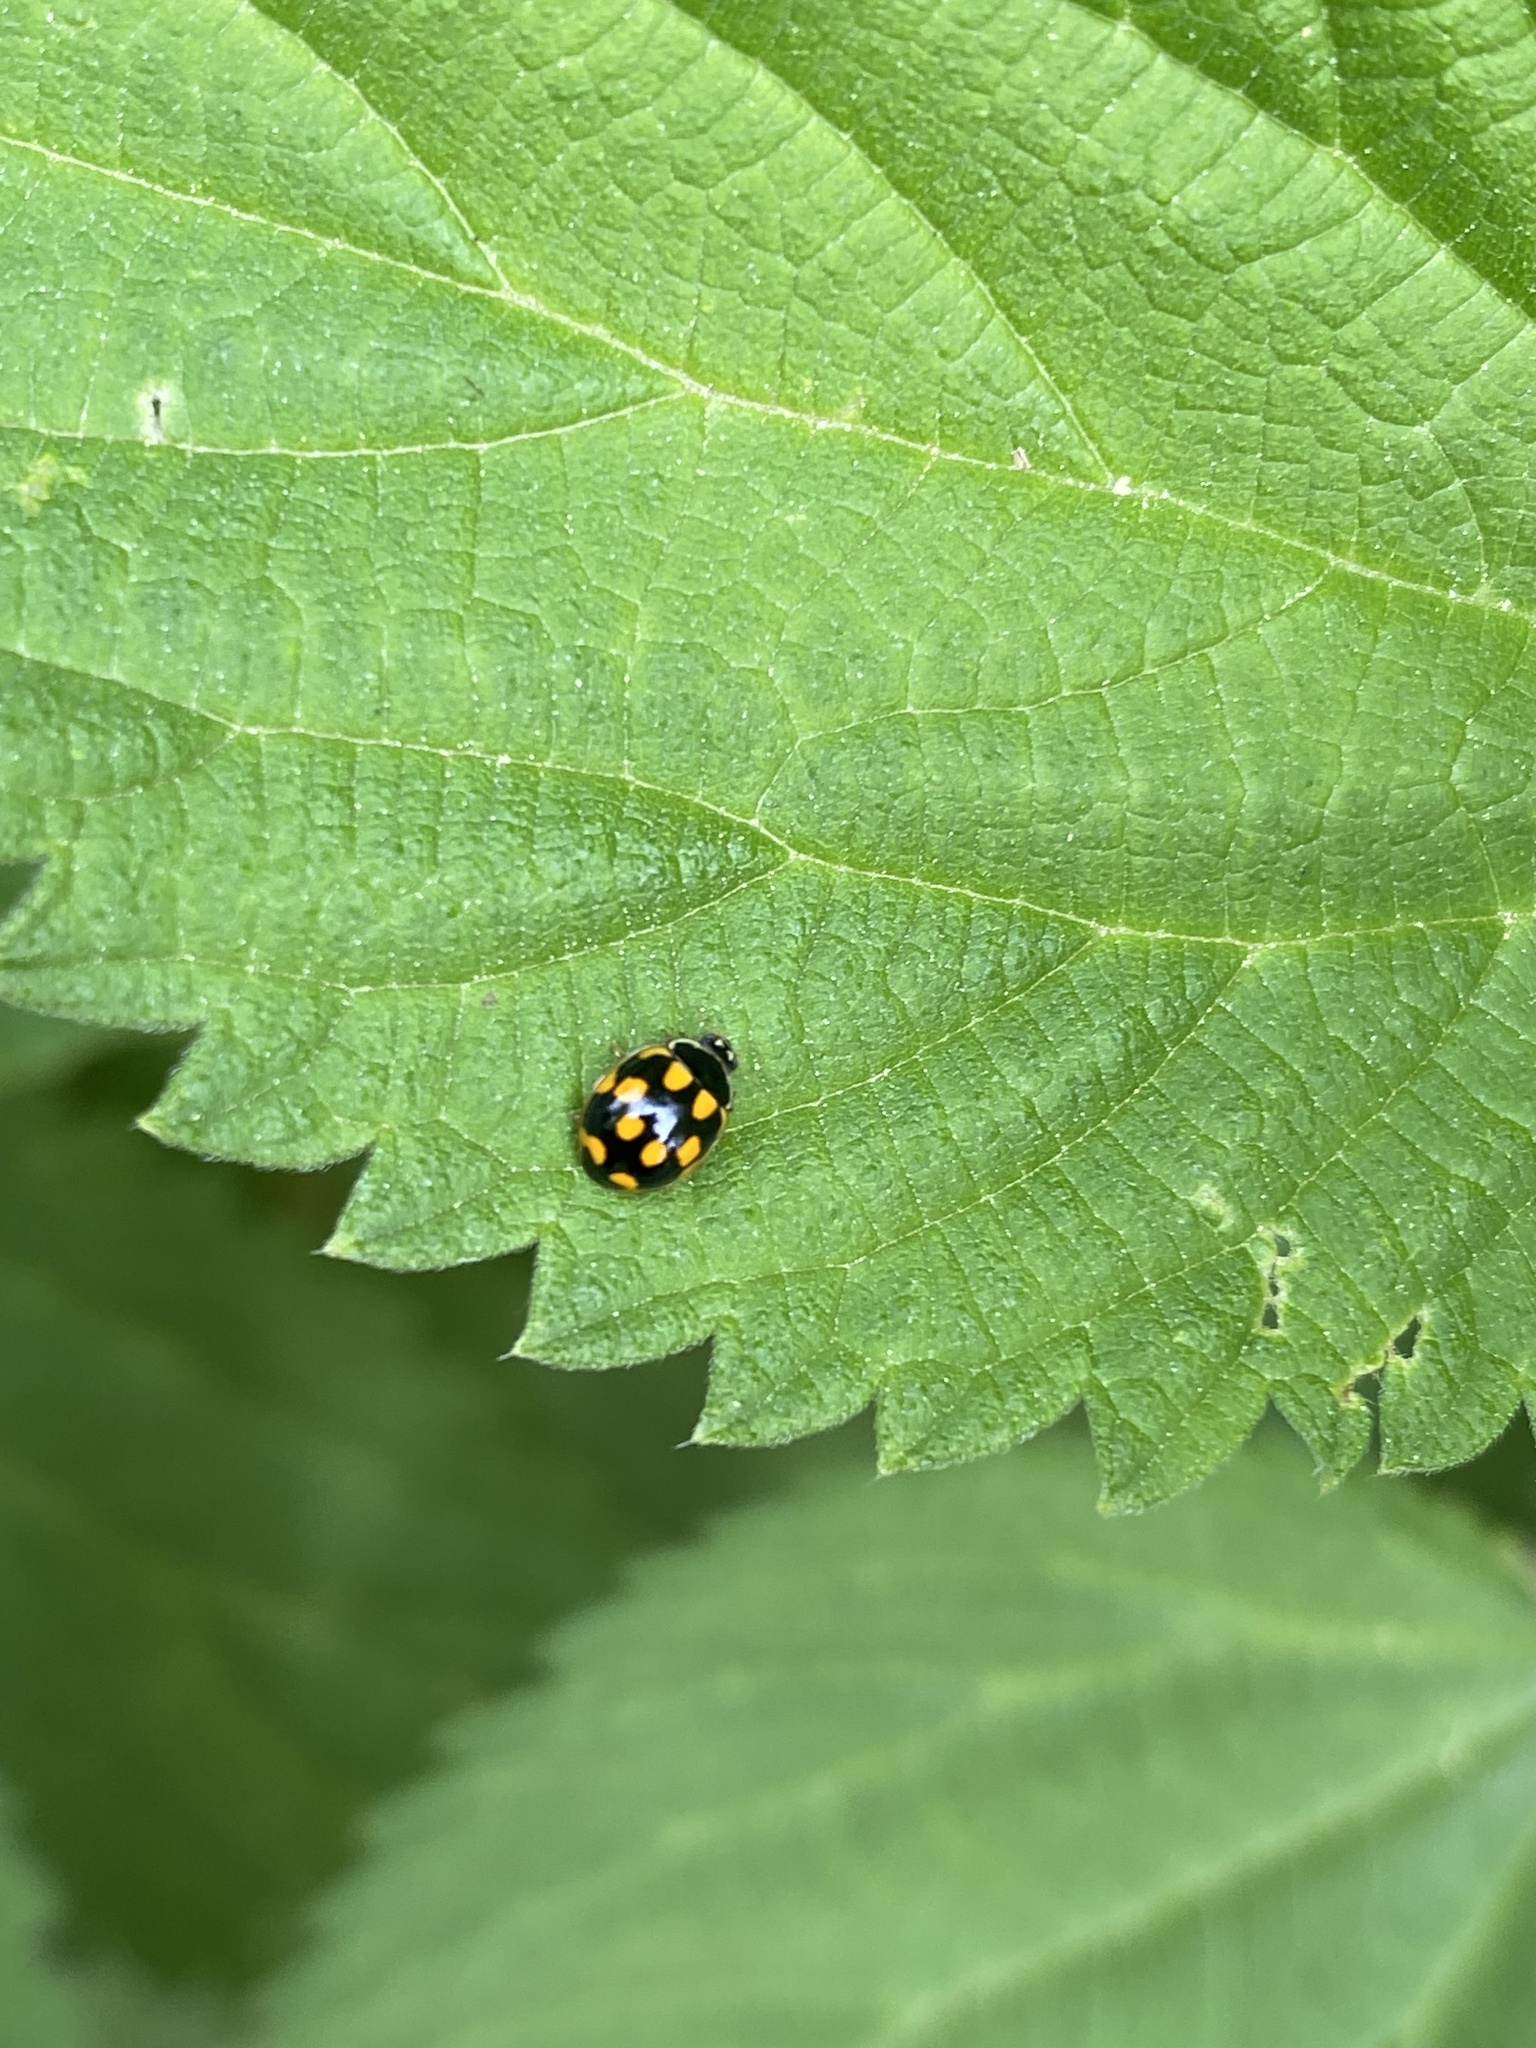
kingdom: Animalia
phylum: Arthropoda
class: Insecta
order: Coleoptera
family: Coccinellidae
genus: Propylaea
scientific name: Propylaea quatuordecimpunctata
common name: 14-spotted ladybird beetle
